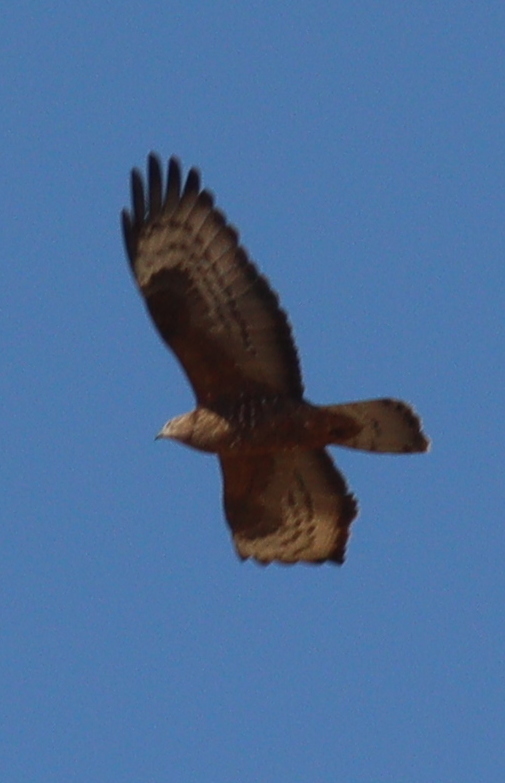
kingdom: Animalia
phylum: Chordata
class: Aves
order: Accipitriformes
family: Accipitridae
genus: Pernis
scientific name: Pernis apivorus
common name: European honey buzzard
